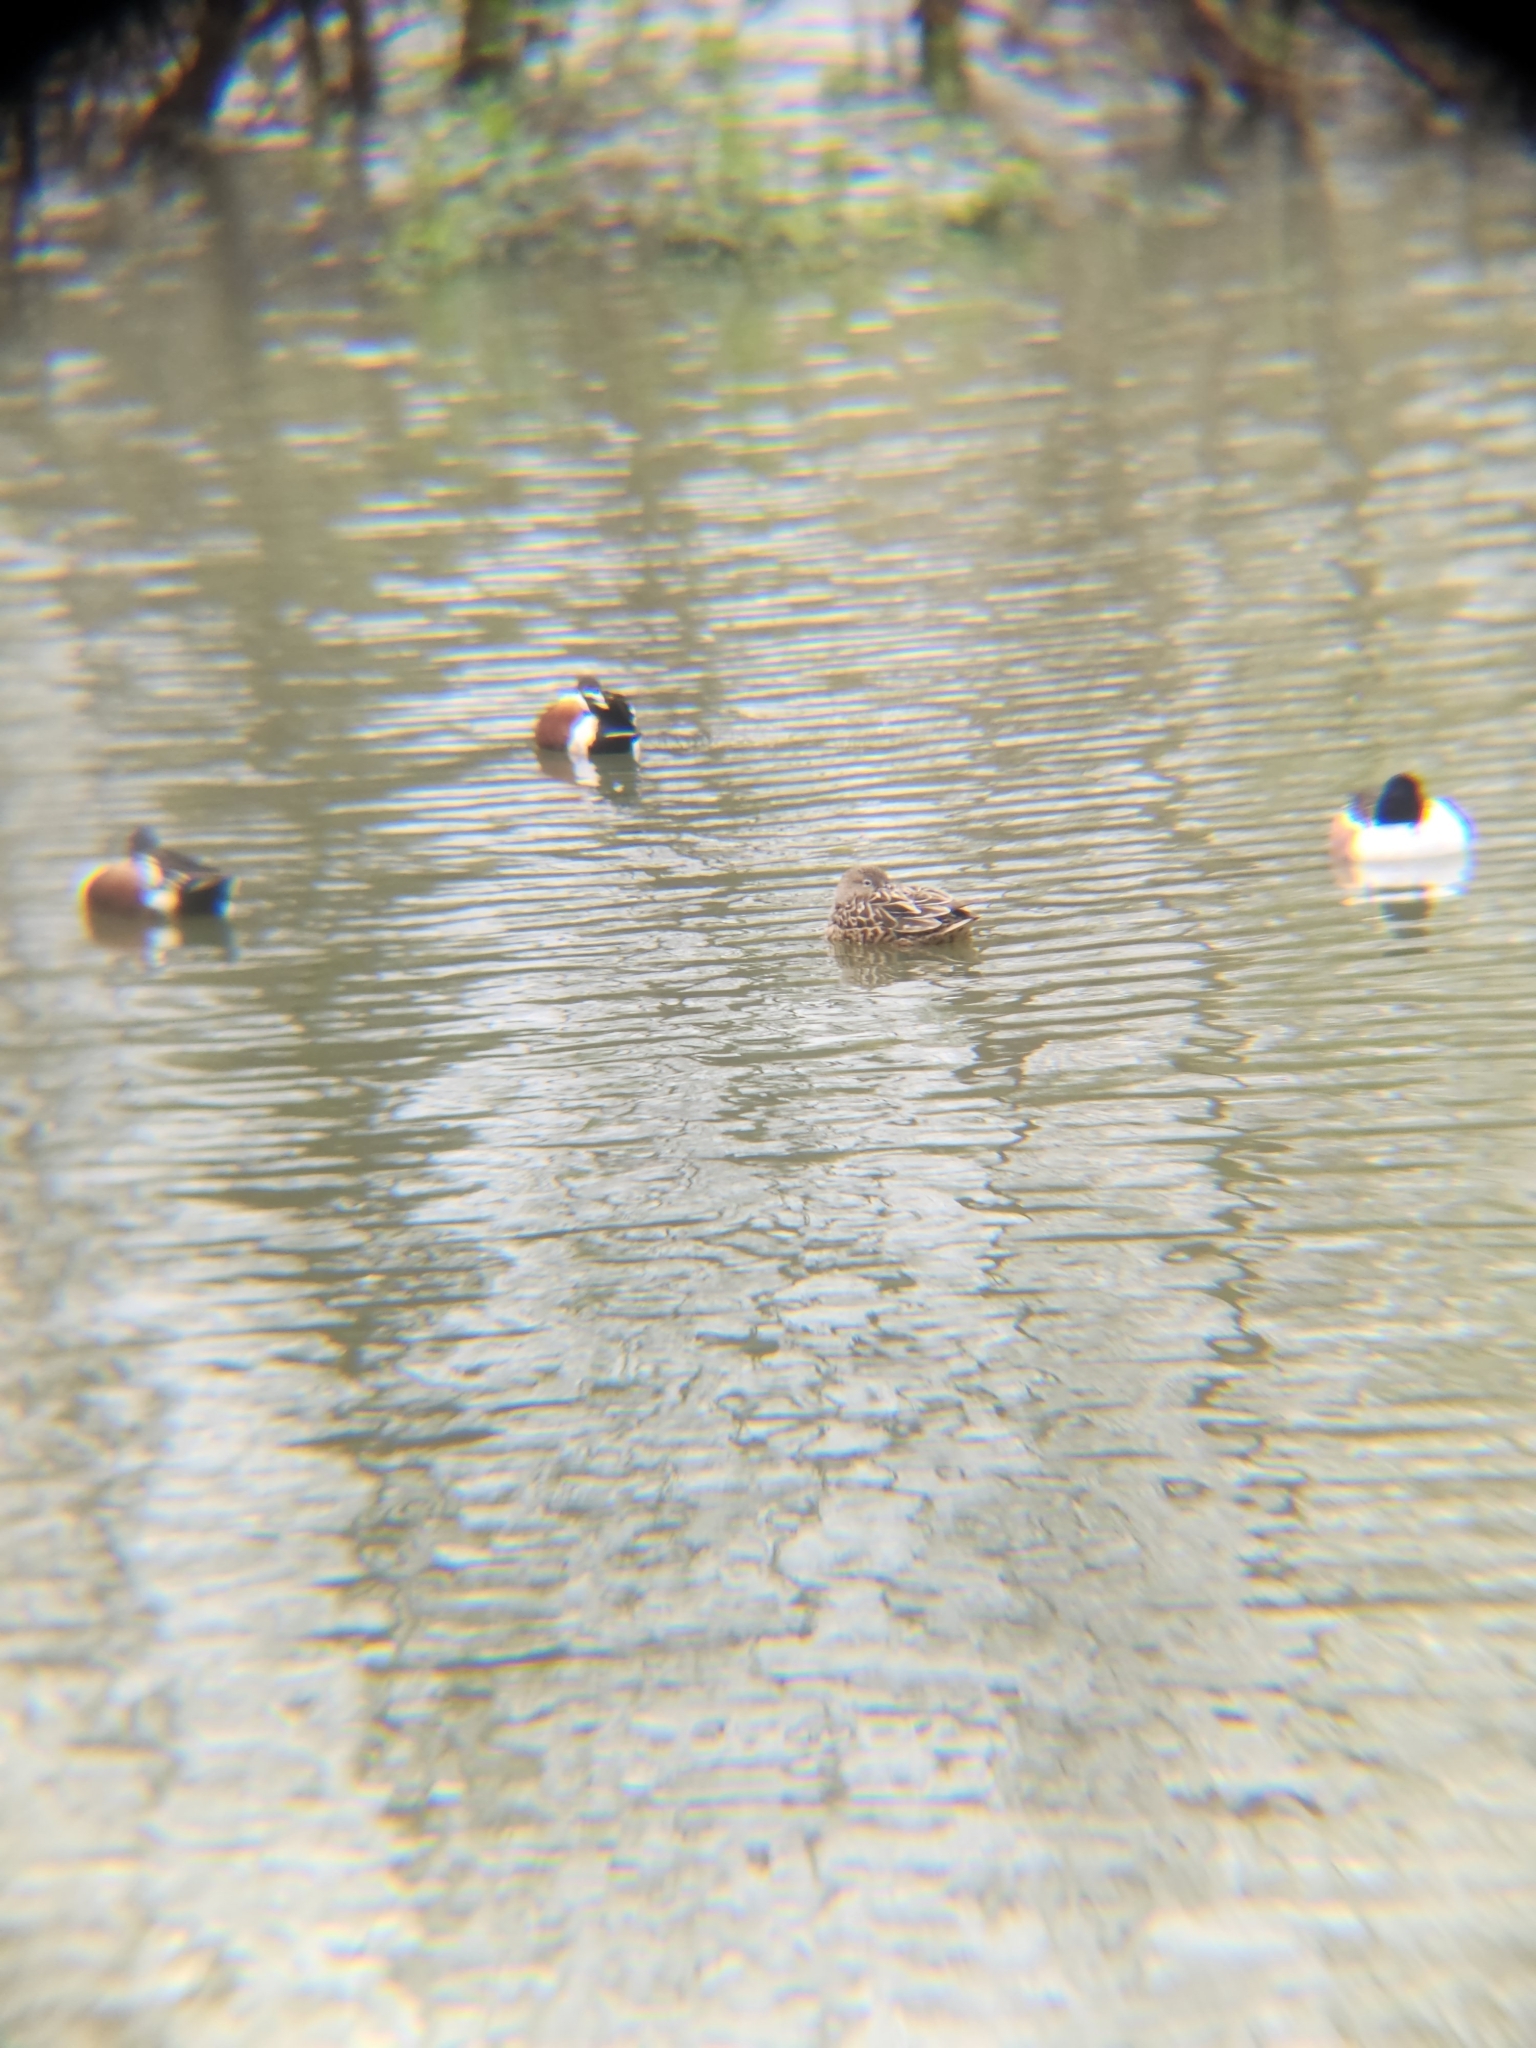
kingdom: Animalia
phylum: Chordata
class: Aves
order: Anseriformes
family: Anatidae
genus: Spatula
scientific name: Spatula clypeata
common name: Northern shoveler
